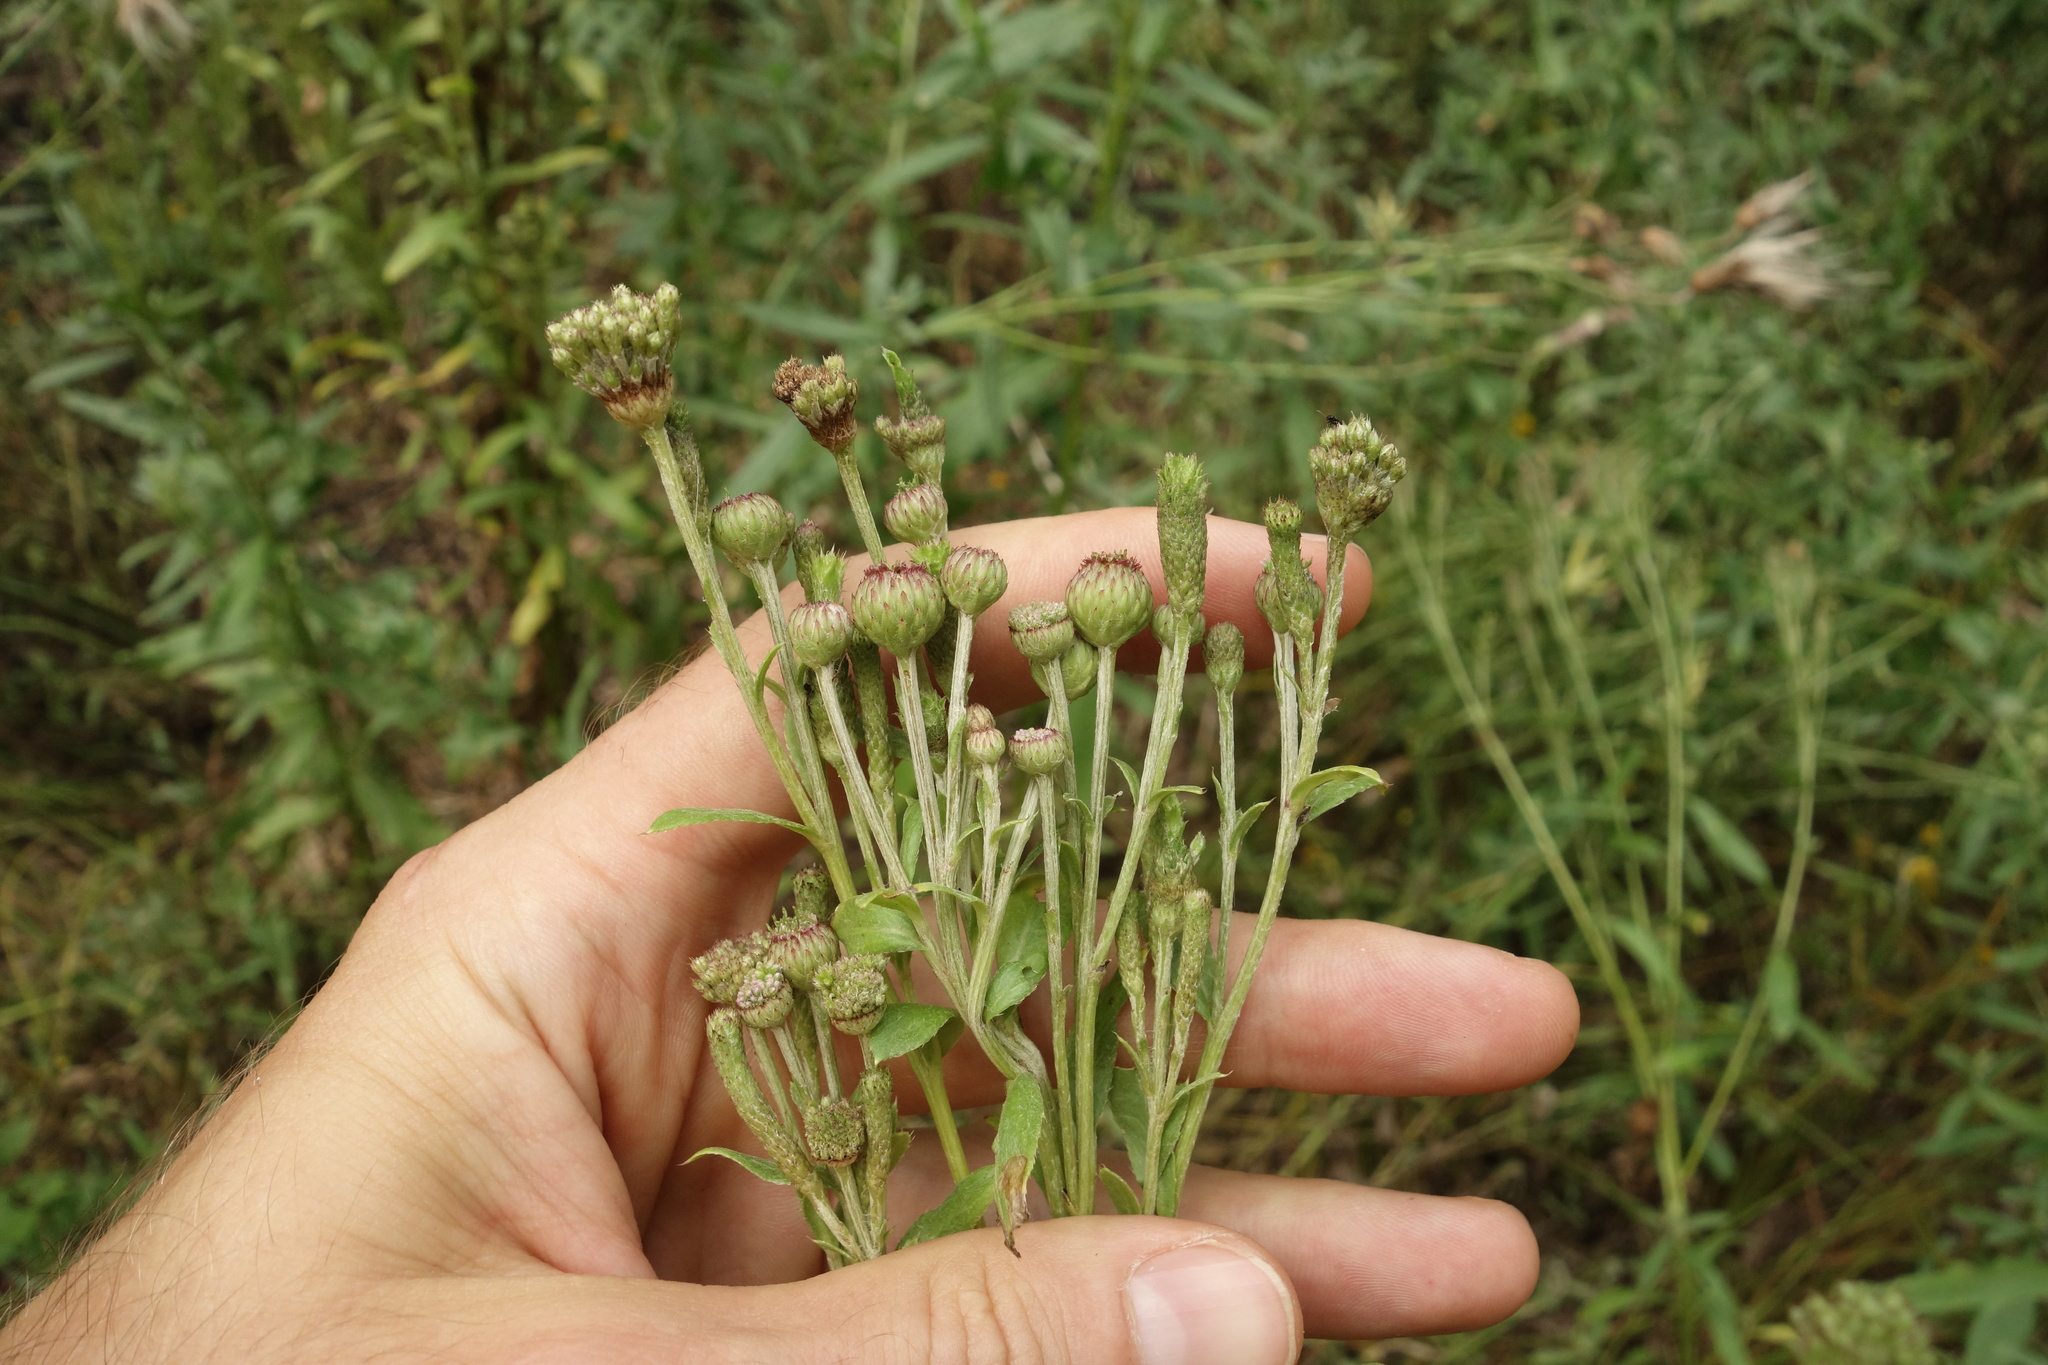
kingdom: Plantae
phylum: Tracheophyta
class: Magnoliopsida
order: Asterales
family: Asteraceae
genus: Cirsium
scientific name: Cirsium arvense
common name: Creeping thistle
